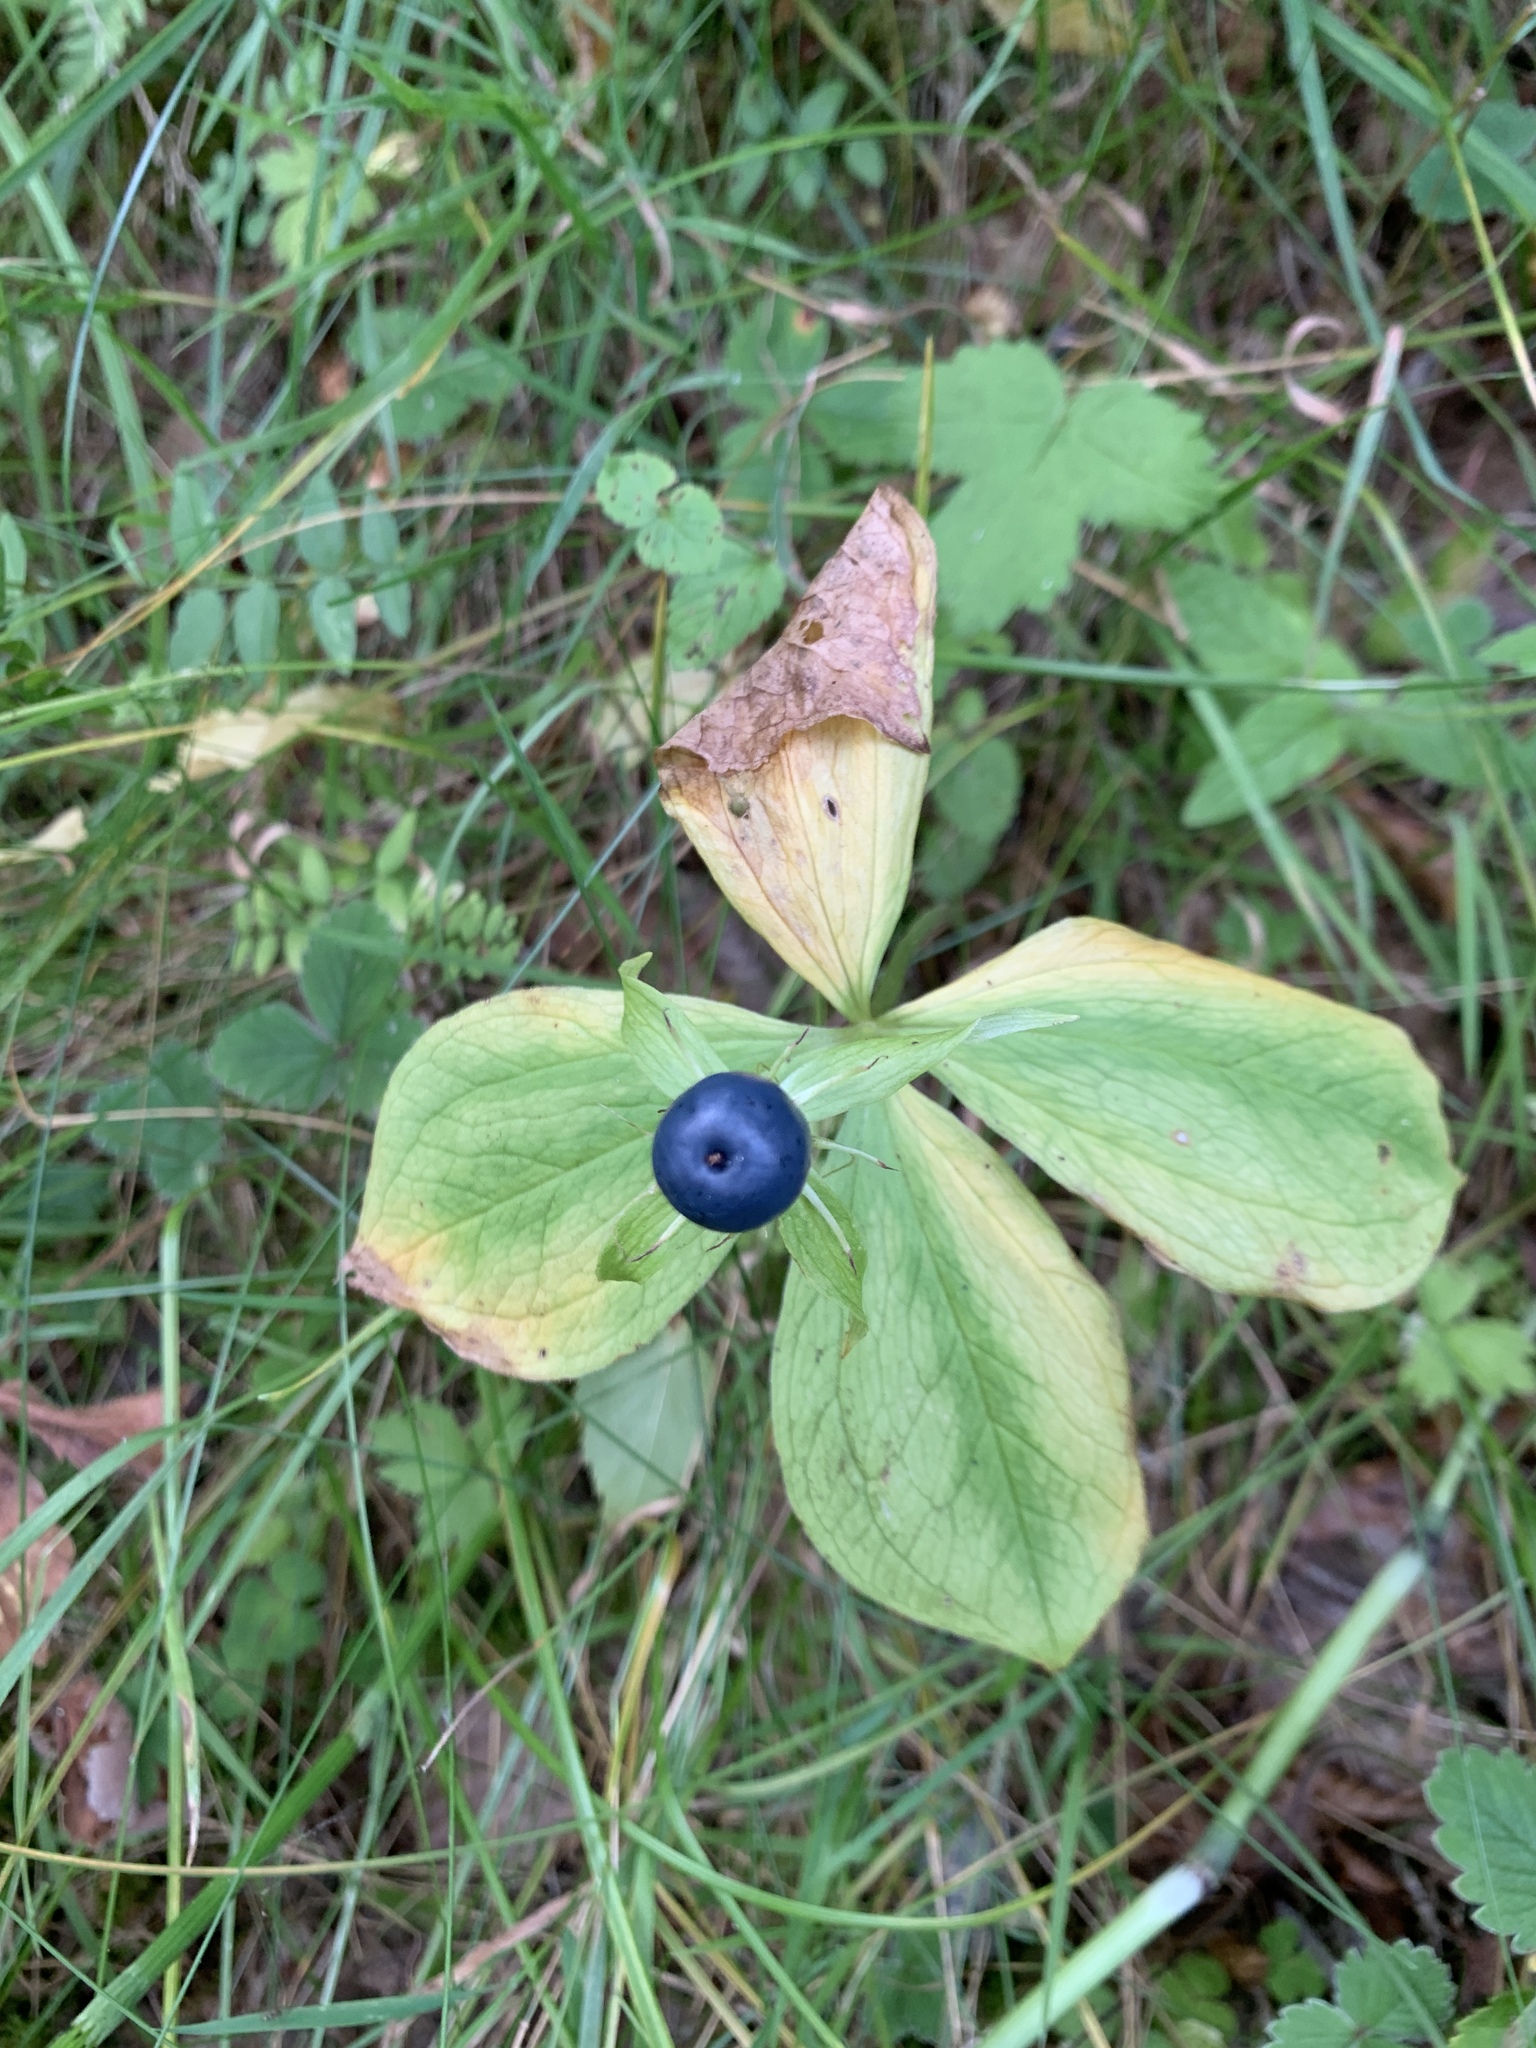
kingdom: Plantae
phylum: Tracheophyta
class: Liliopsida
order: Liliales
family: Melanthiaceae
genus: Paris
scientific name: Paris quadrifolia
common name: Herb-paris
